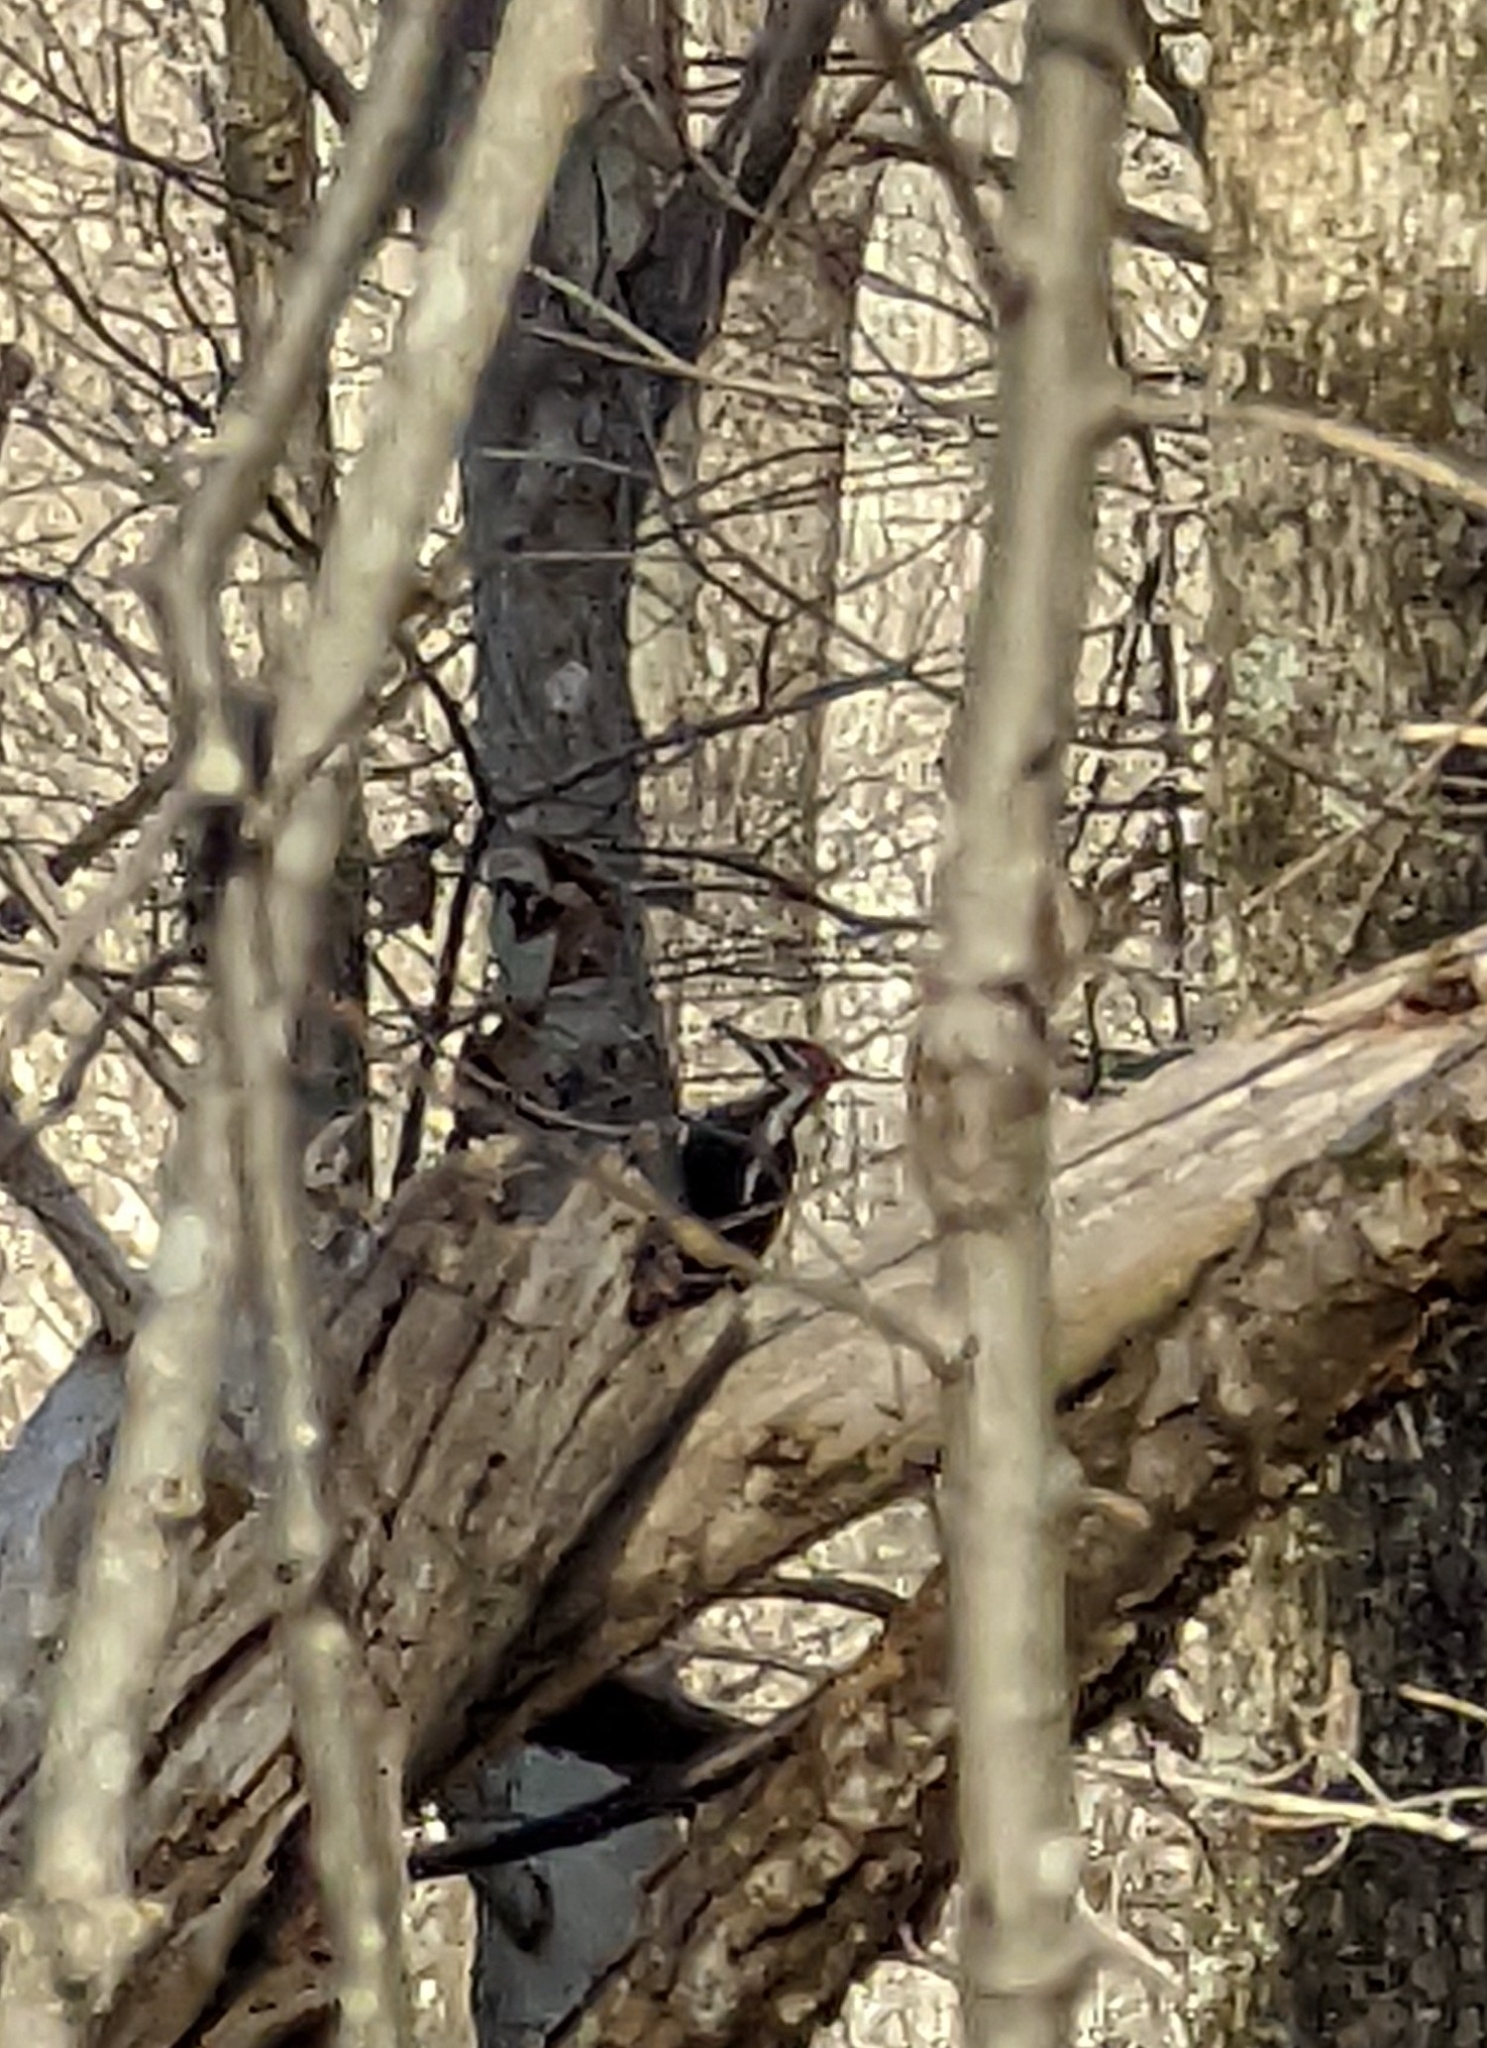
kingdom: Animalia
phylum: Chordata
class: Aves
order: Piciformes
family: Picidae
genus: Dryocopus
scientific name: Dryocopus pileatus
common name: Pileated woodpecker
